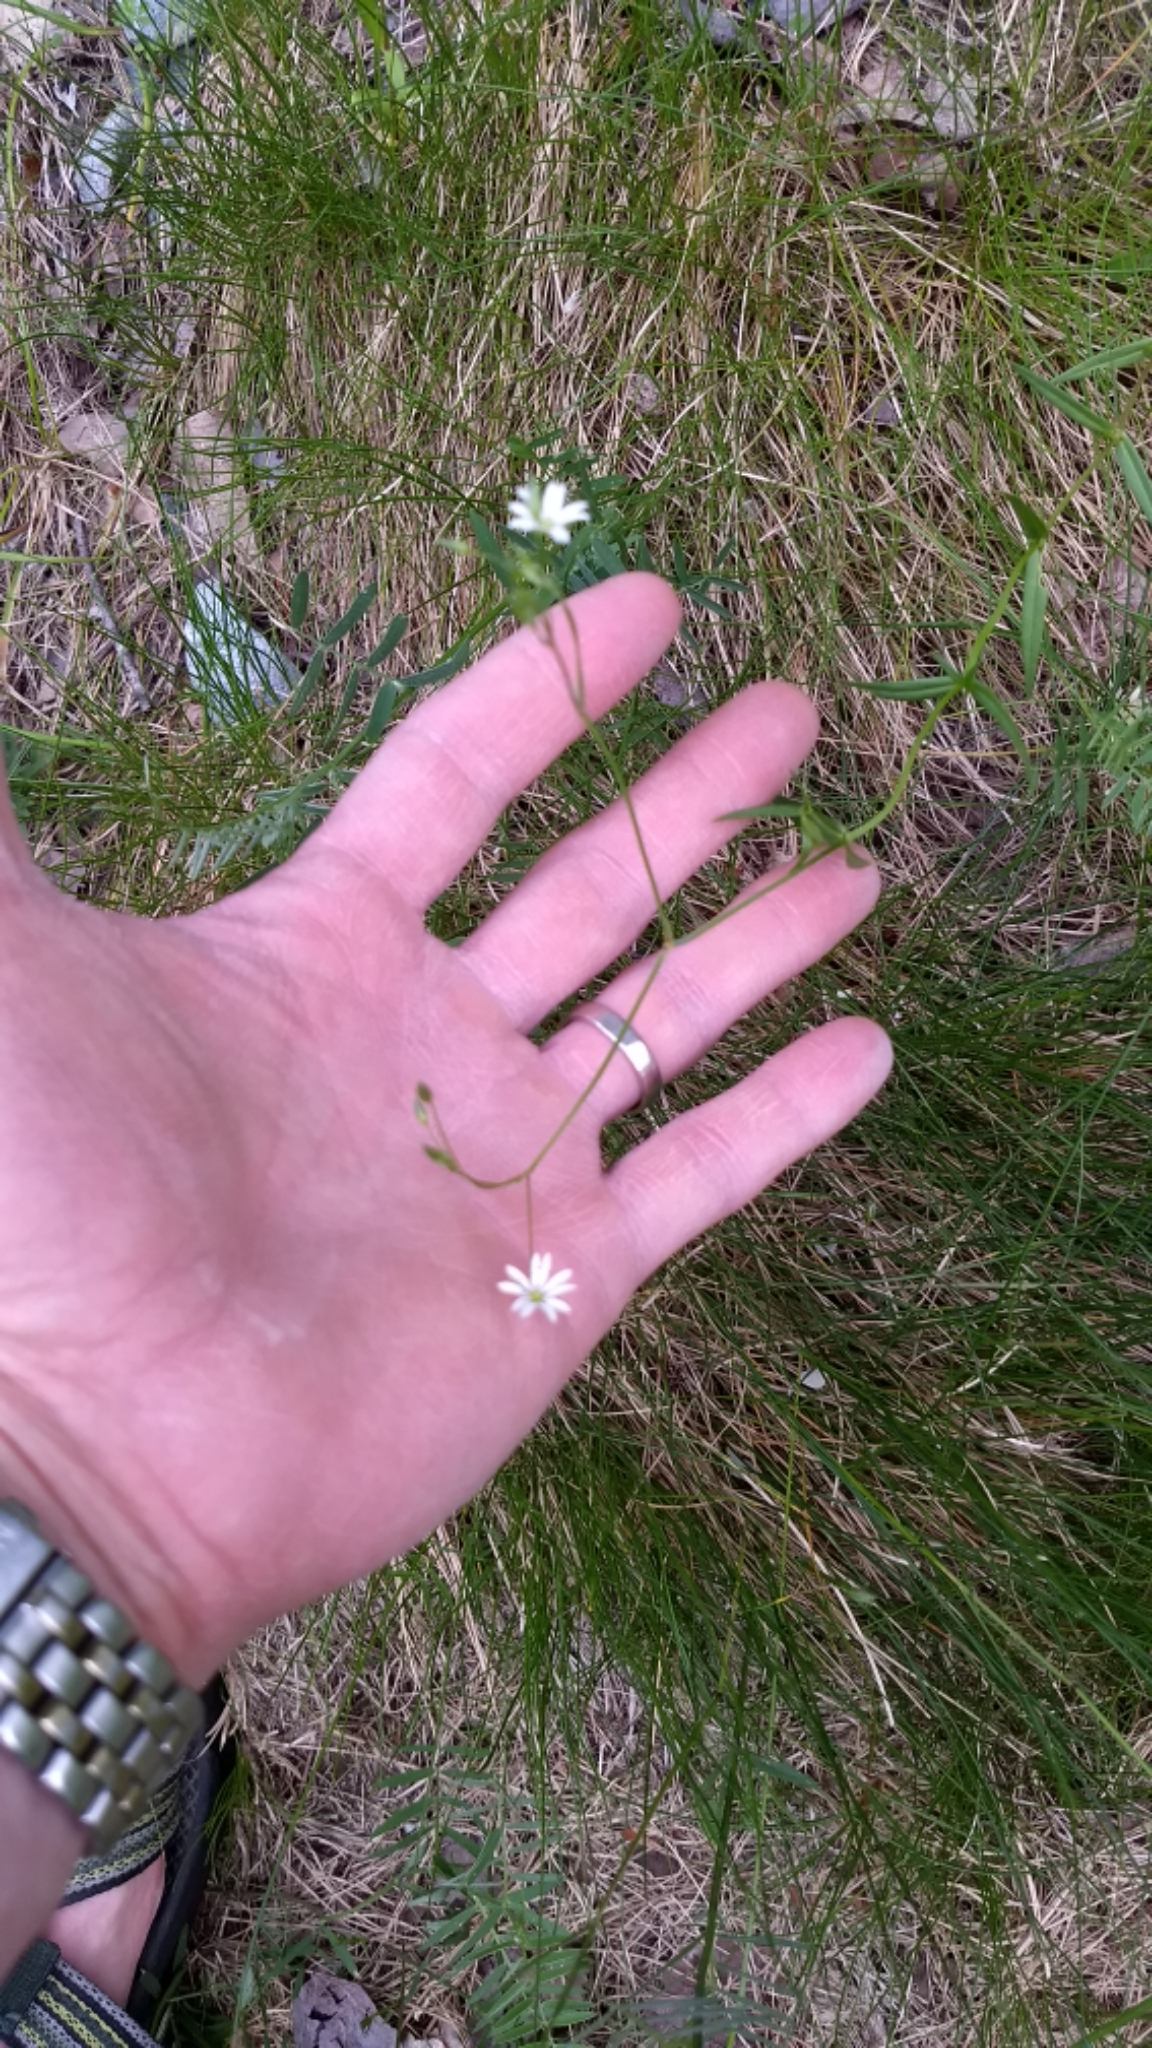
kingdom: Plantae
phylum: Tracheophyta
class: Magnoliopsida
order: Caryophyllales
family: Caryophyllaceae
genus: Stellaria
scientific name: Stellaria graminea
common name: Grass-like starwort
